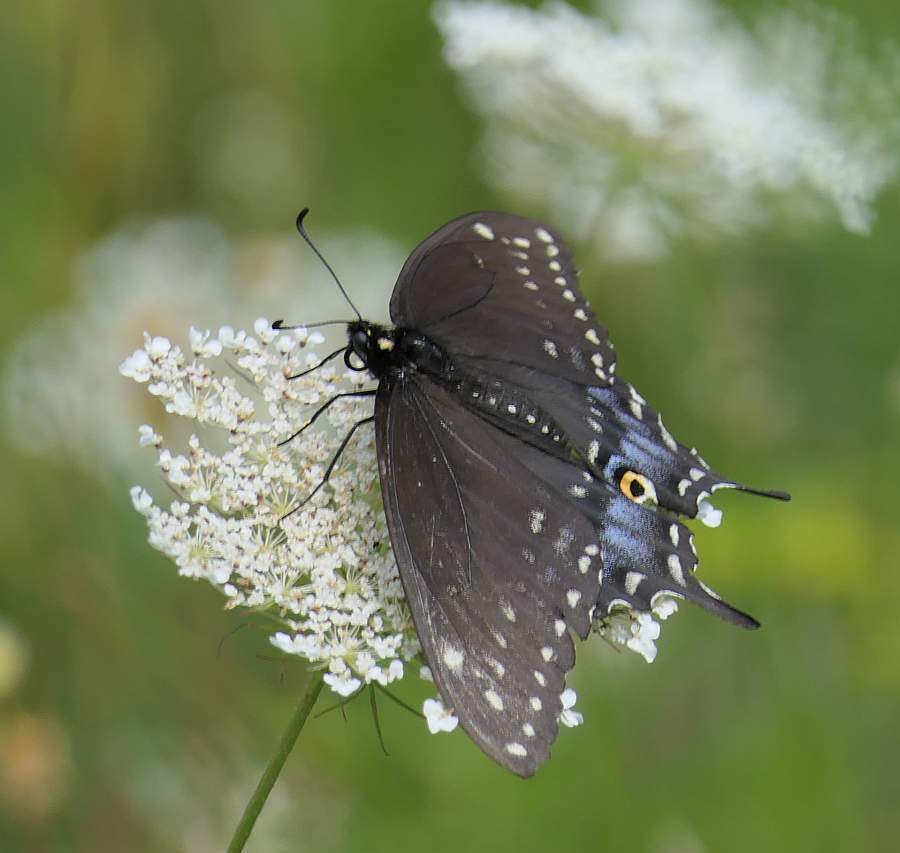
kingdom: Animalia
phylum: Arthropoda
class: Insecta
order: Lepidoptera
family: Papilionidae
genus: Papilio
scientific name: Papilio polyxenes
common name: Black swallowtail
